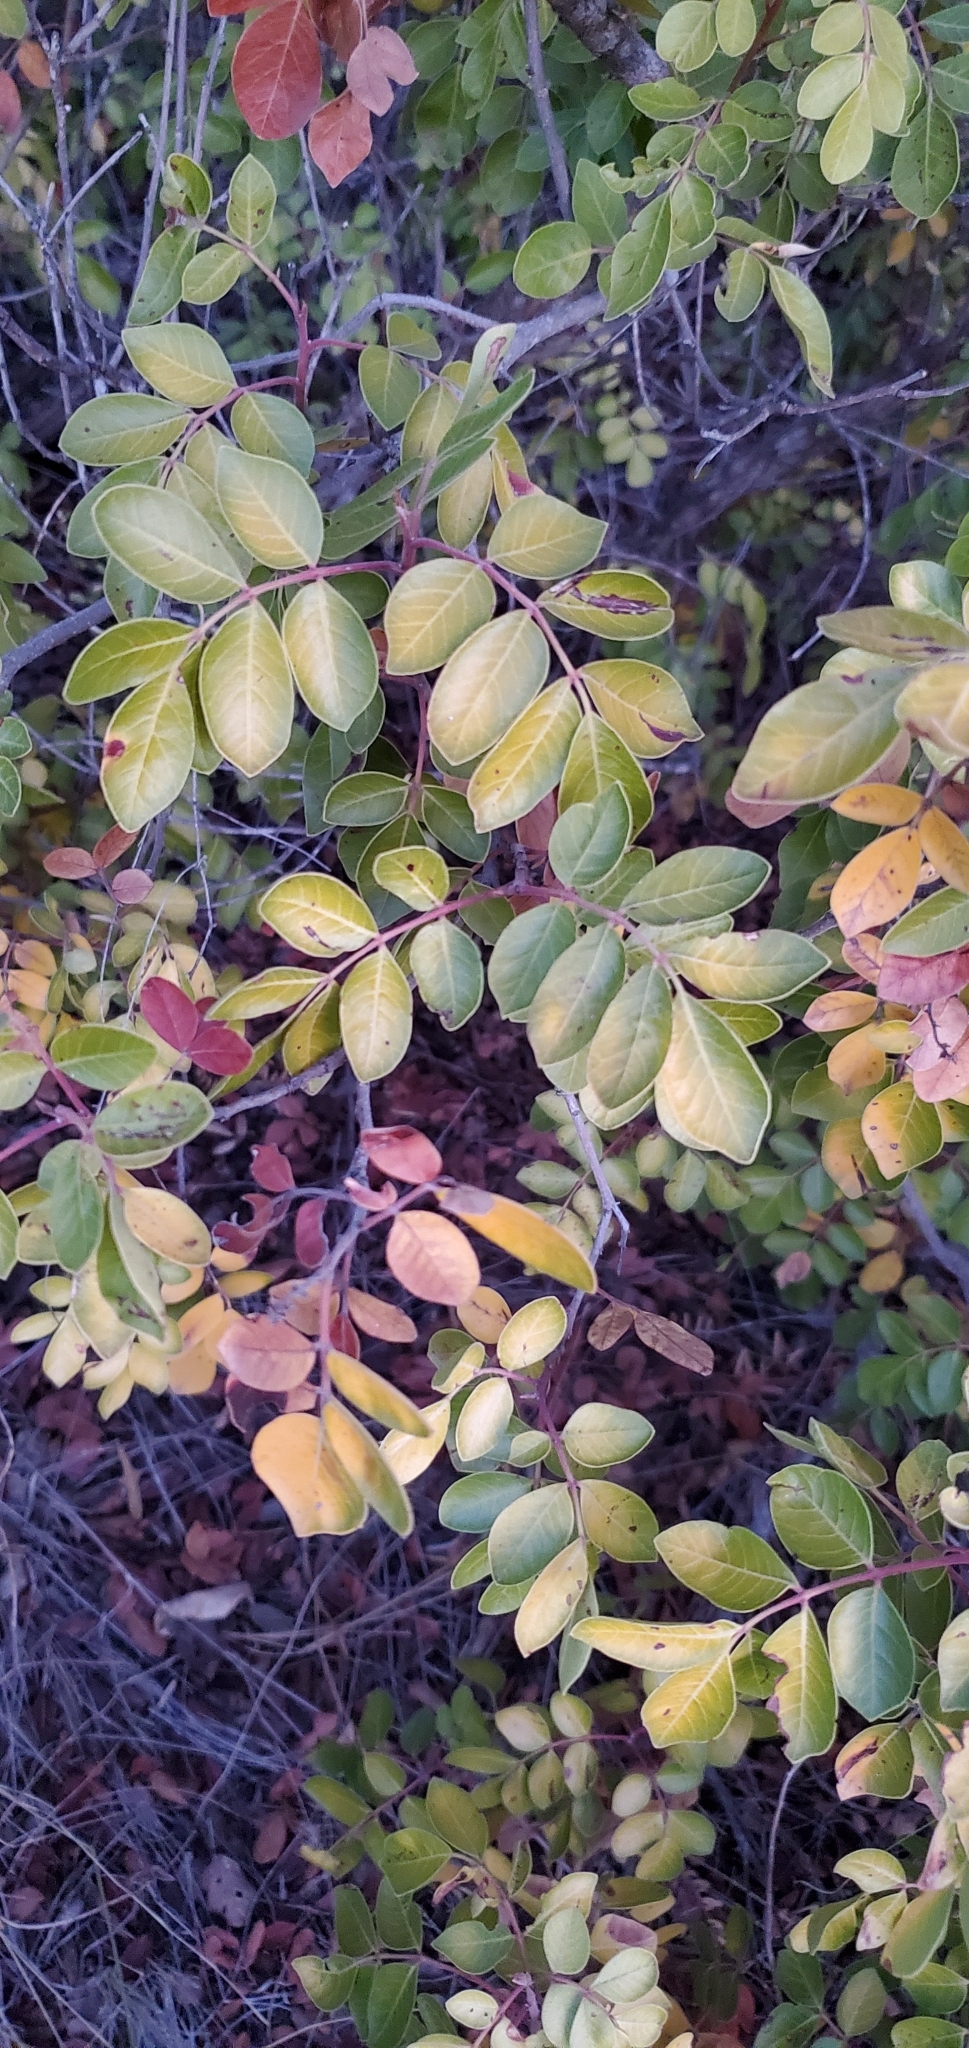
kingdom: Plantae
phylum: Tracheophyta
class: Magnoliopsida
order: Sapindales
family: Anacardiaceae
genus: Rhus
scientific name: Rhus virens
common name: Evergreen sumac
